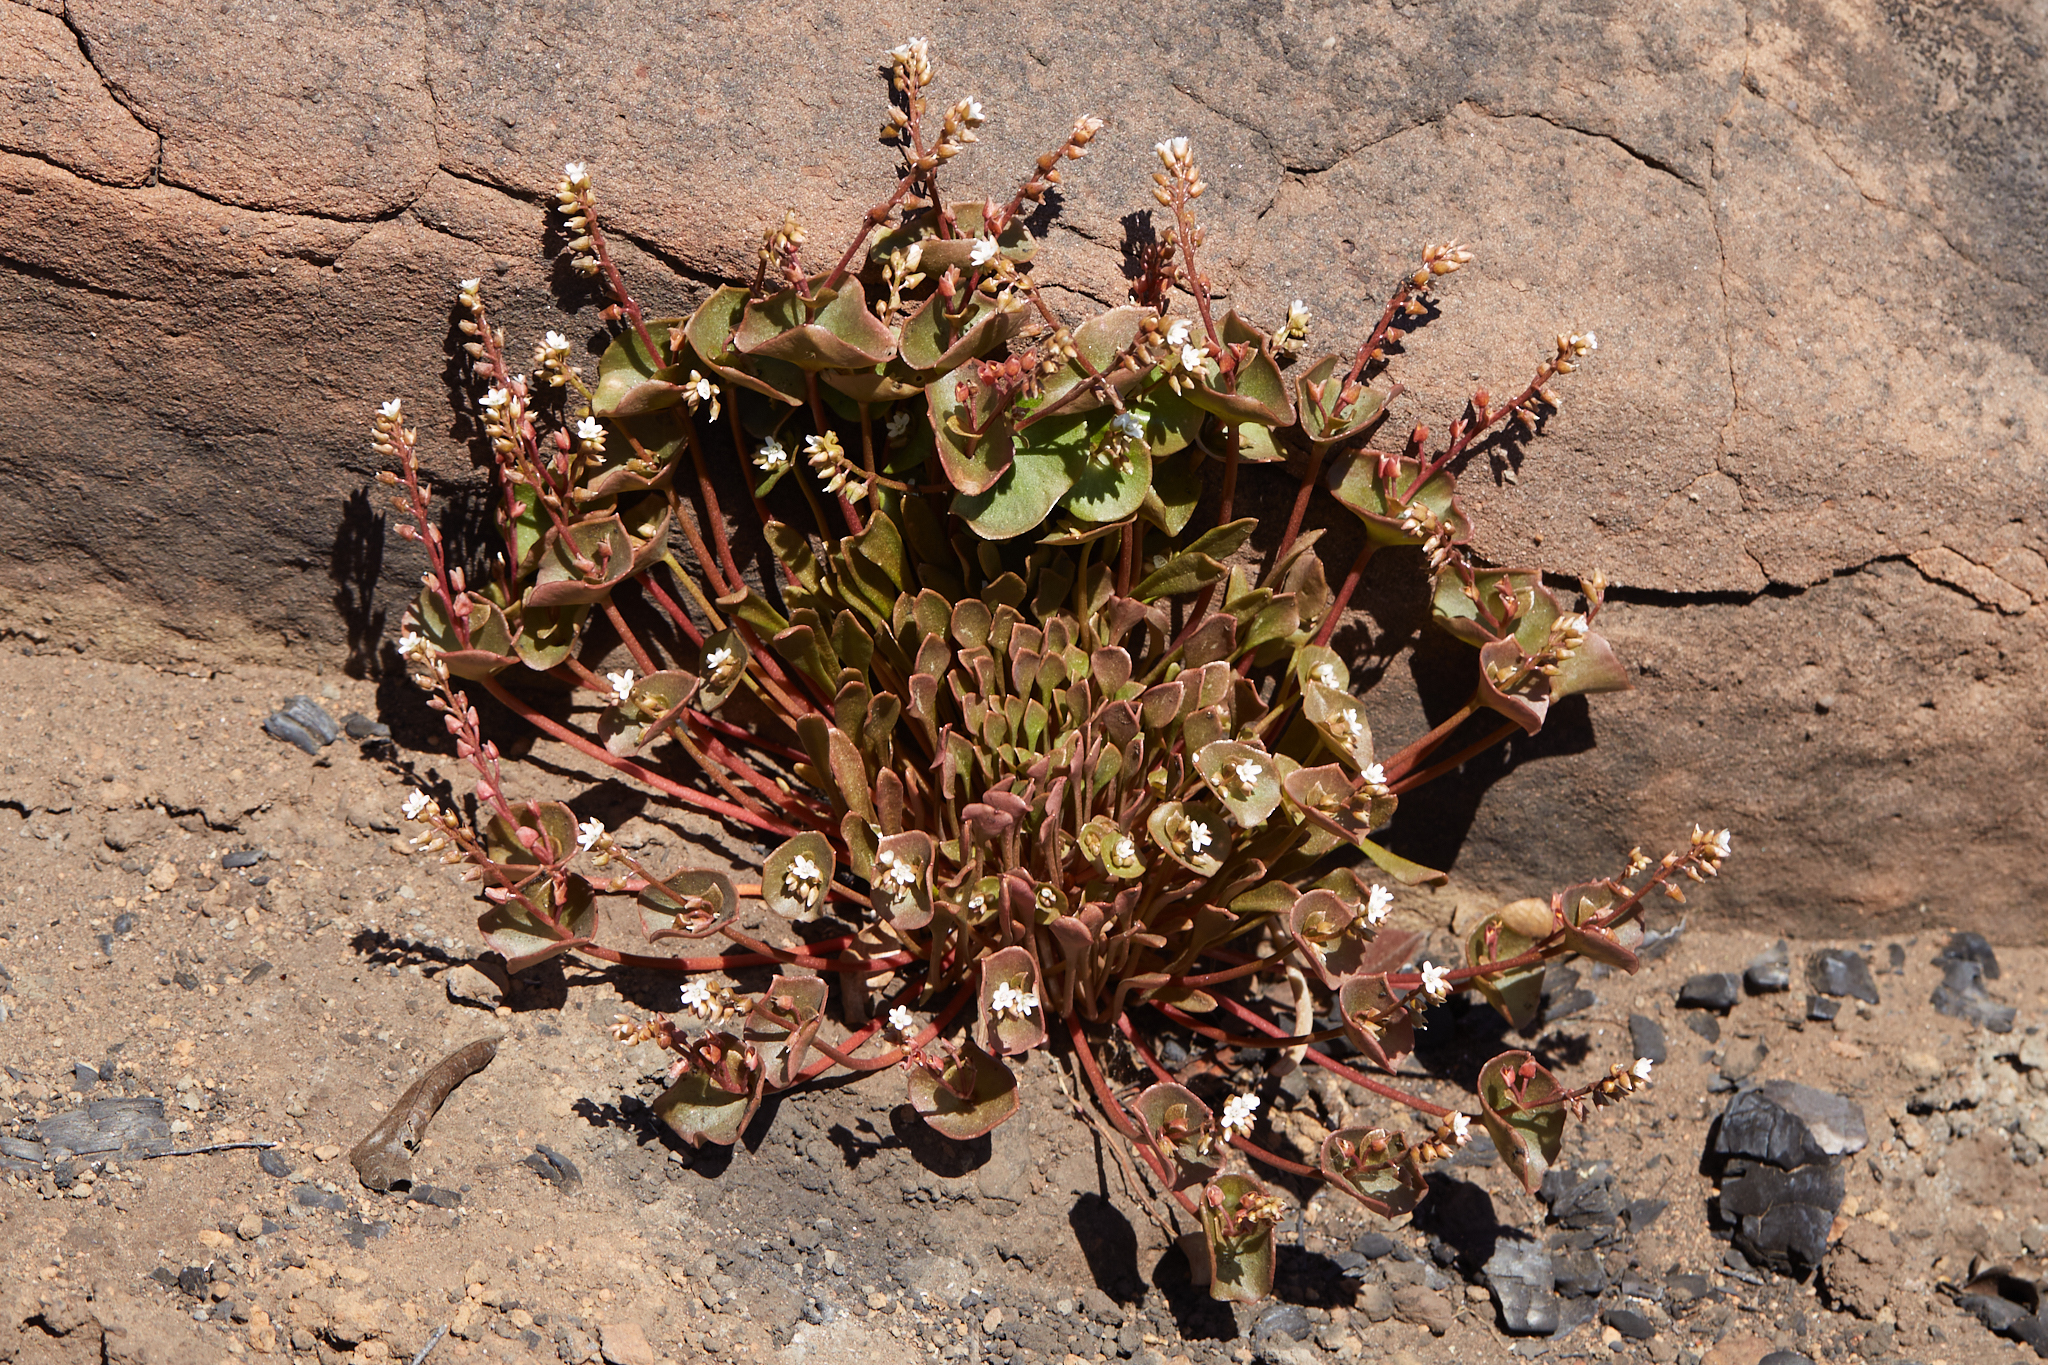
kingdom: Plantae
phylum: Tracheophyta
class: Magnoliopsida
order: Caryophyllales
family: Montiaceae
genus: Claytonia
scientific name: Claytonia rubra
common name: Erubescent miner's-lettuce
